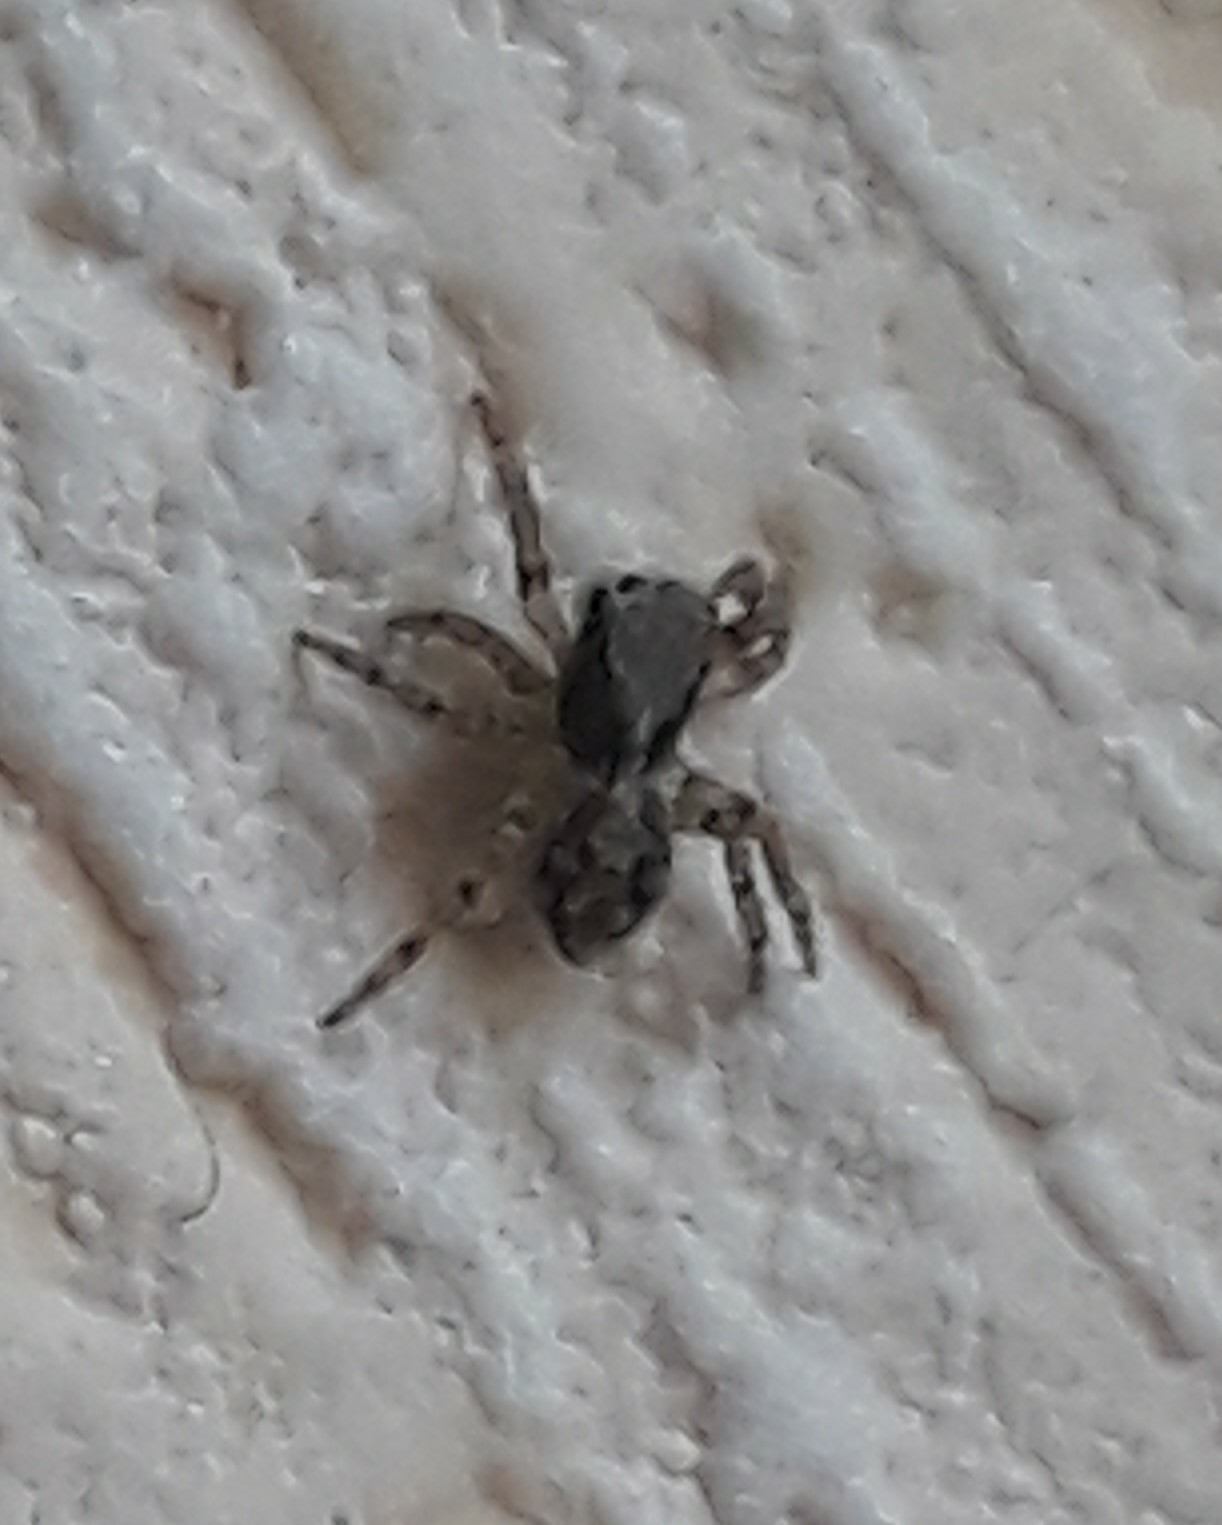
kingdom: Animalia
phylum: Arthropoda
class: Arachnida
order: Araneae
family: Salticidae
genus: Pseudeuophrys
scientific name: Pseudeuophrys lanigera
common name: Jumping spider
